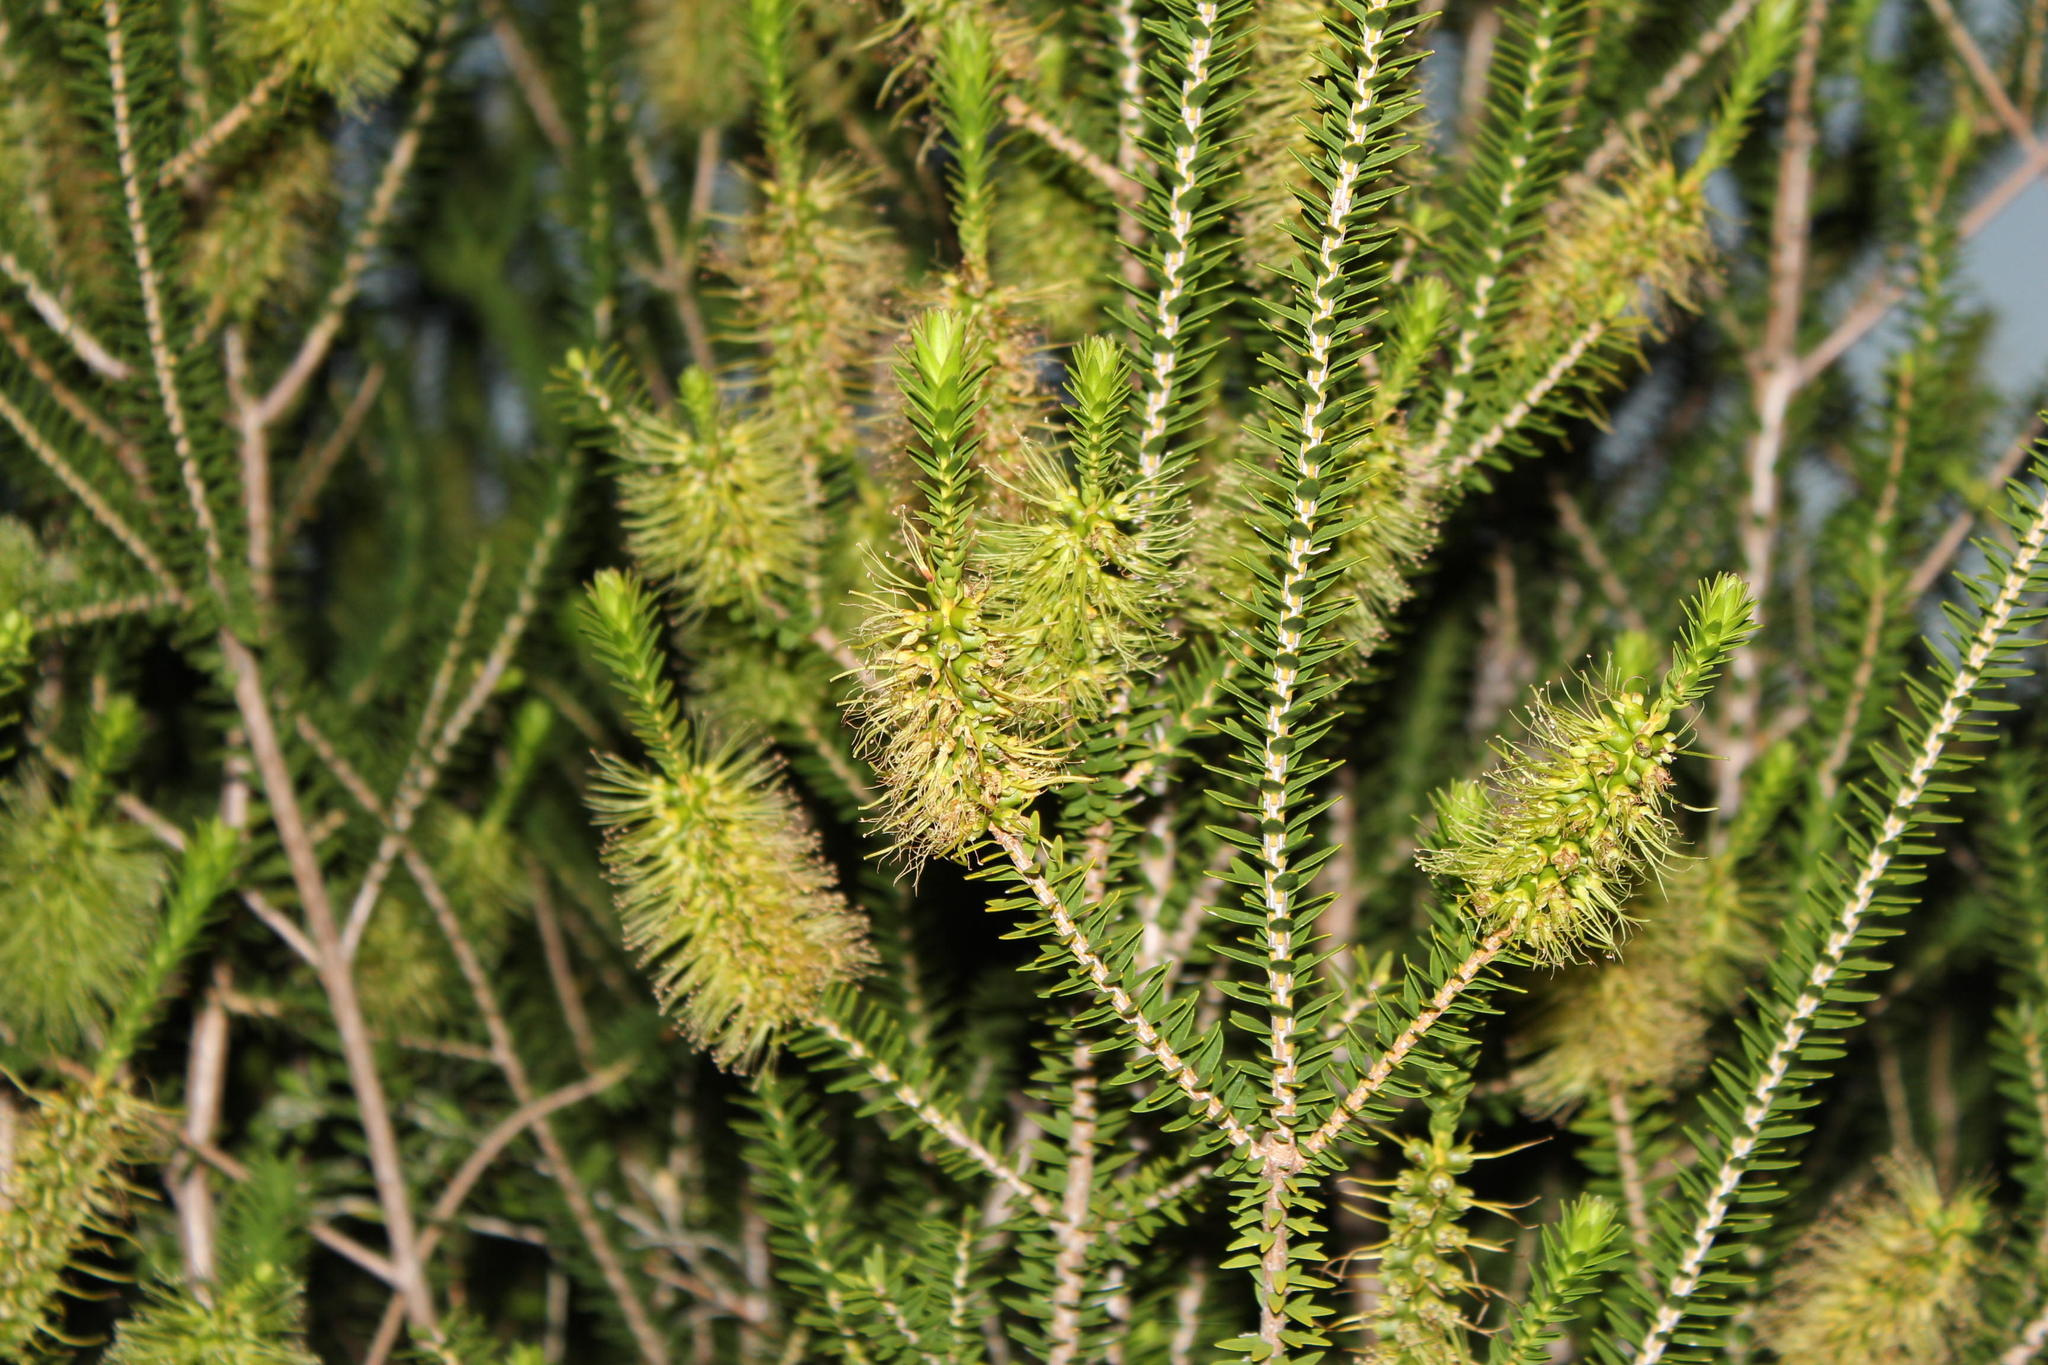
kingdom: Plantae
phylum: Tracheophyta
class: Magnoliopsida
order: Myrtales
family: Myrtaceae
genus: Melaleuca
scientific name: Melaleuca diosmifolia
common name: Green honey myrtle
